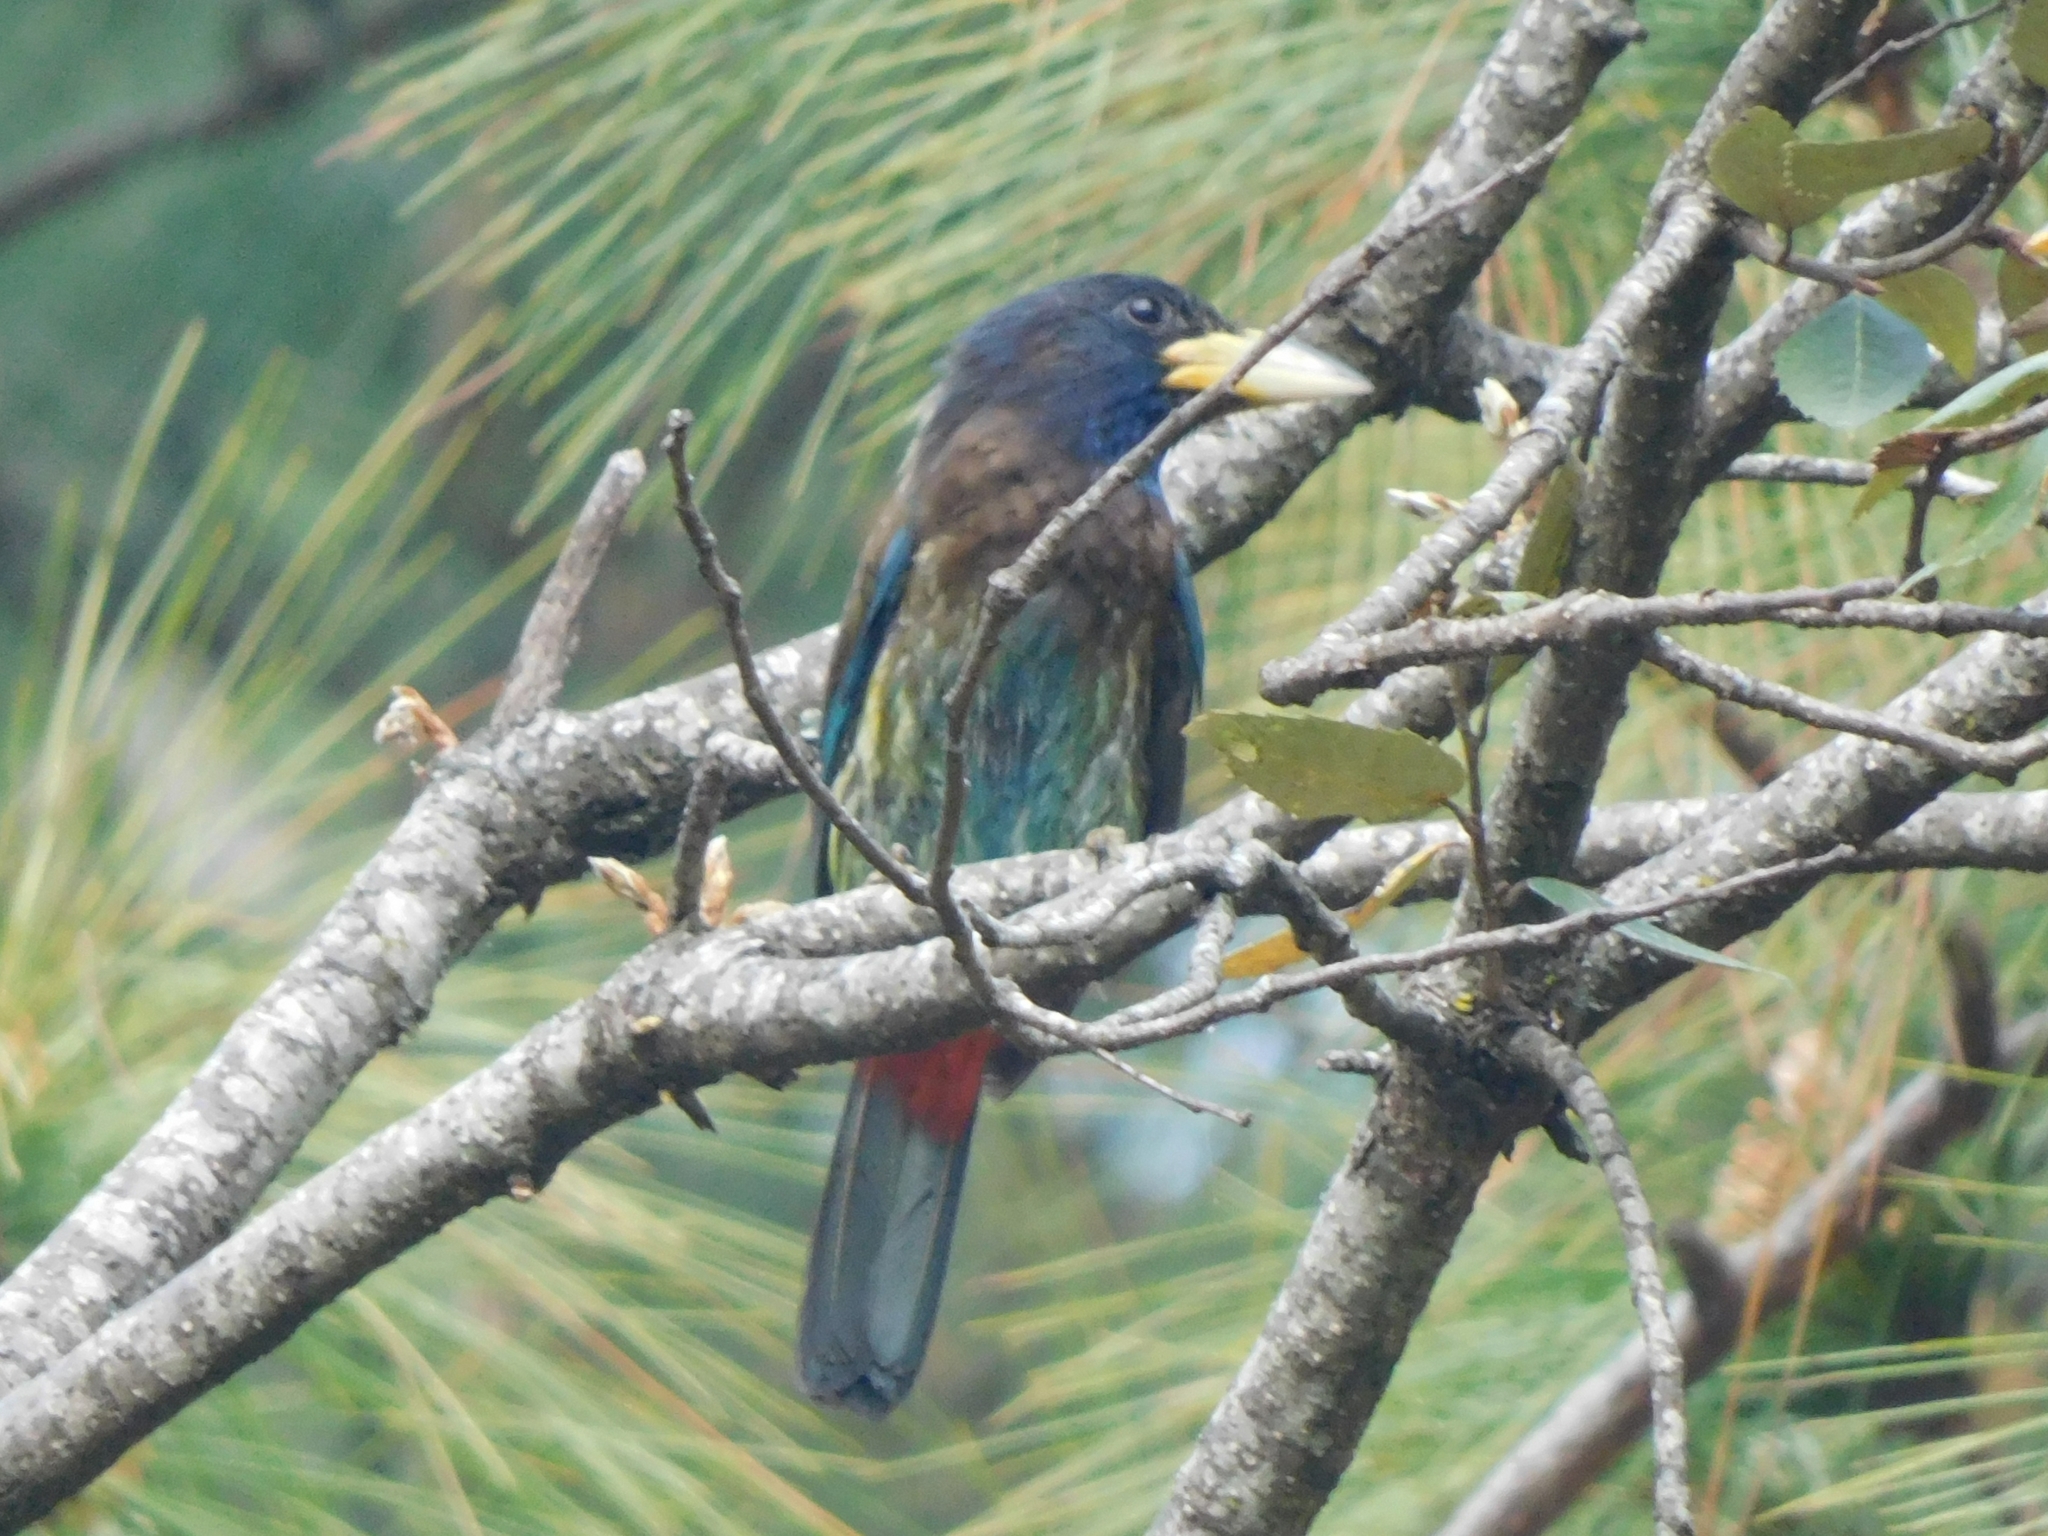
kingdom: Animalia
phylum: Chordata
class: Aves
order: Piciformes
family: Megalaimidae
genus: Psilopogon
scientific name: Psilopogon virens
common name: Great barbet
